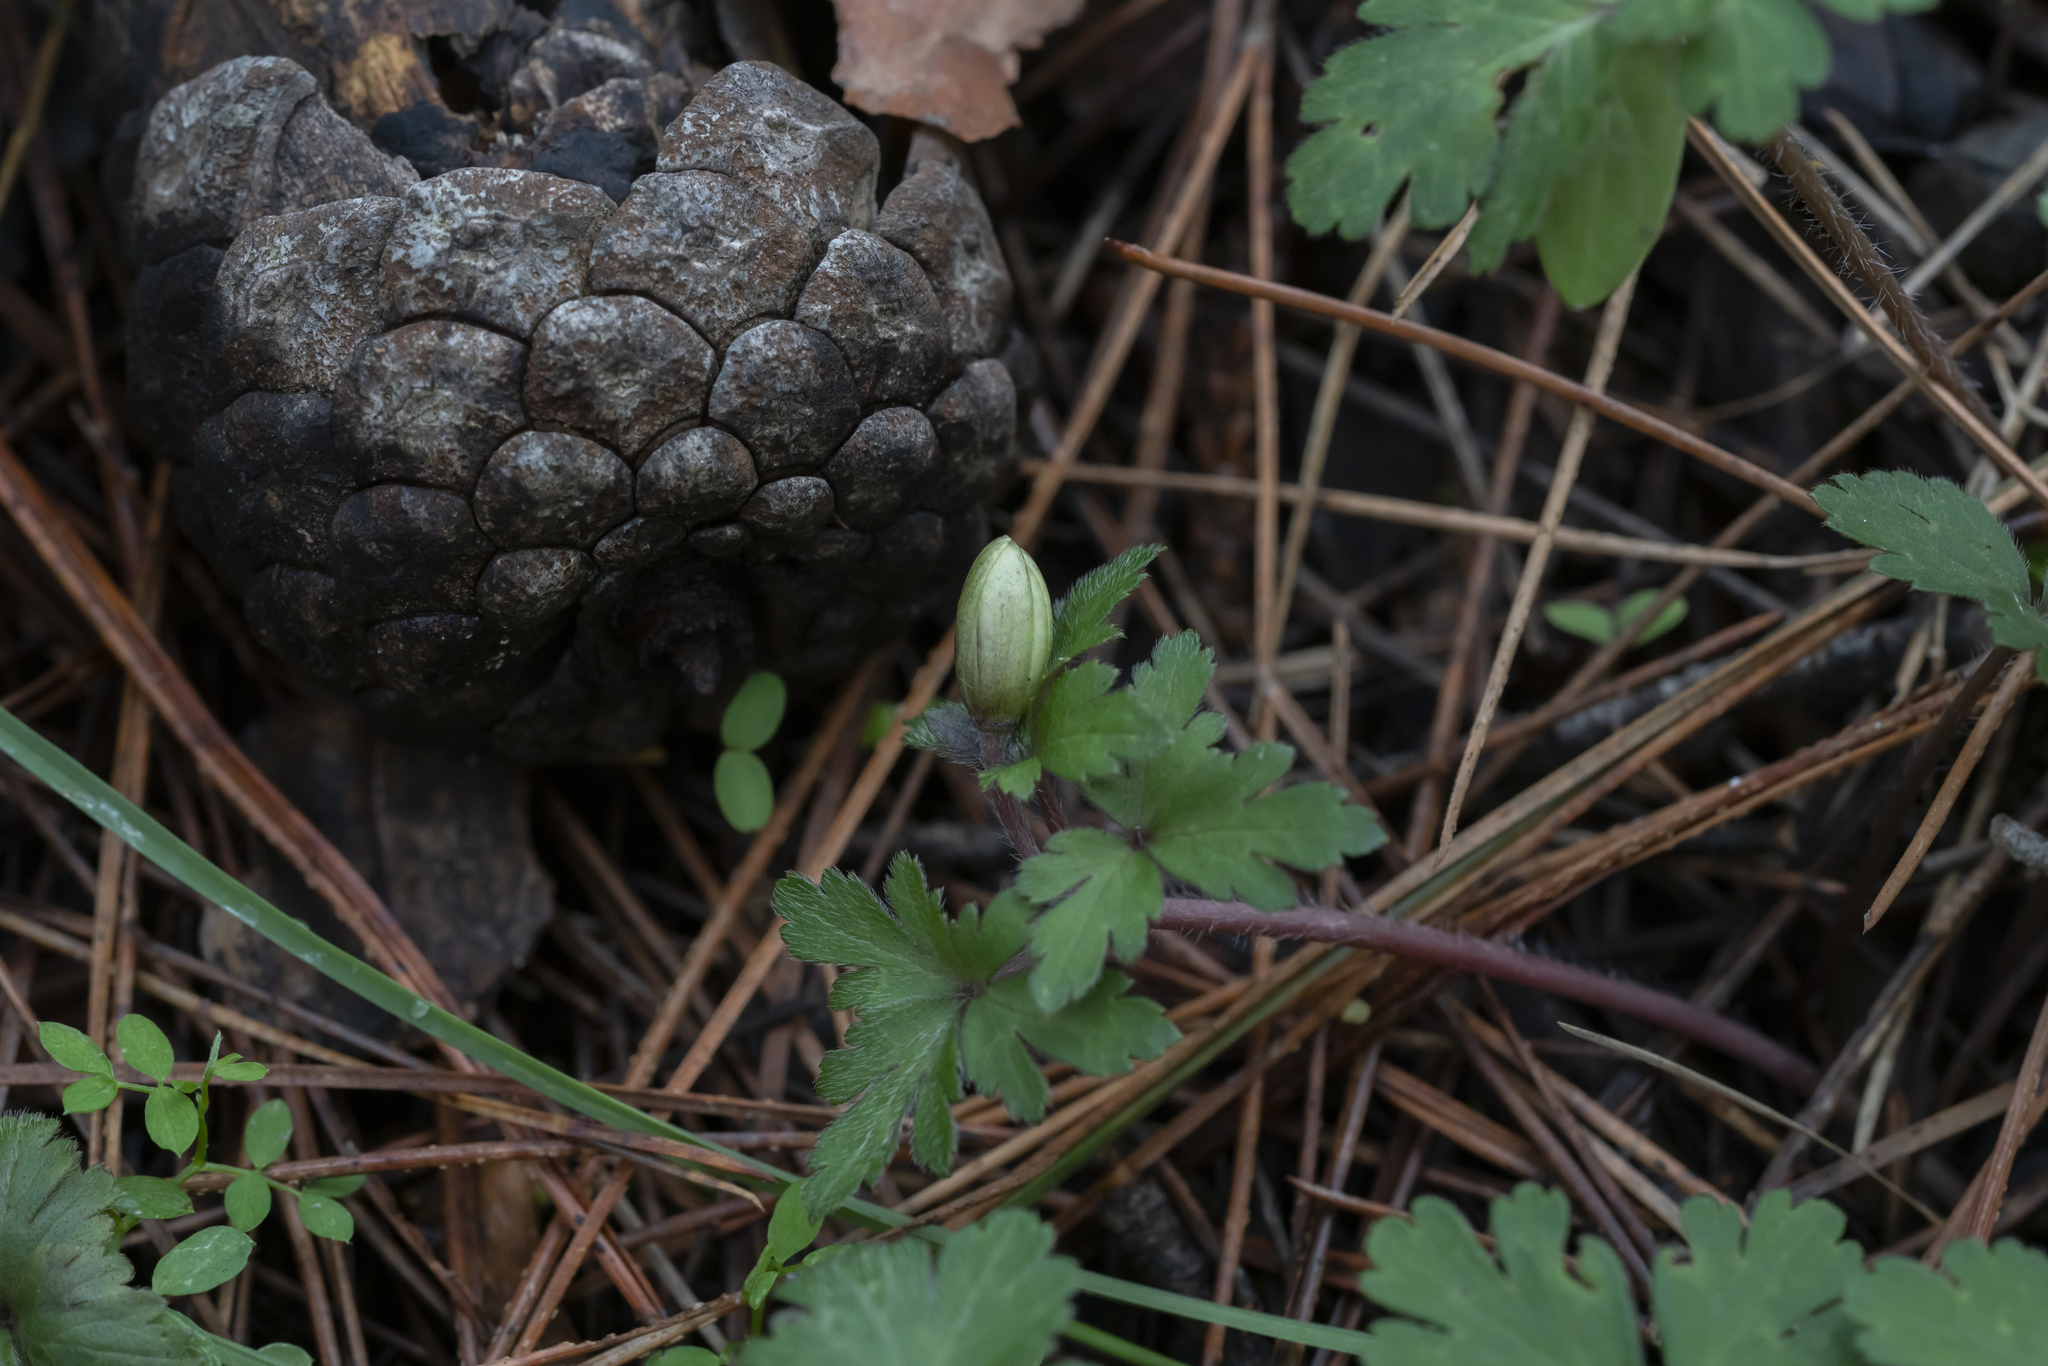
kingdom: Plantae
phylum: Tracheophyta
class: Magnoliopsida
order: Ranunculales
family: Ranunculaceae
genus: Anemone
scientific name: Anemone blanda
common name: Balkan anemone
